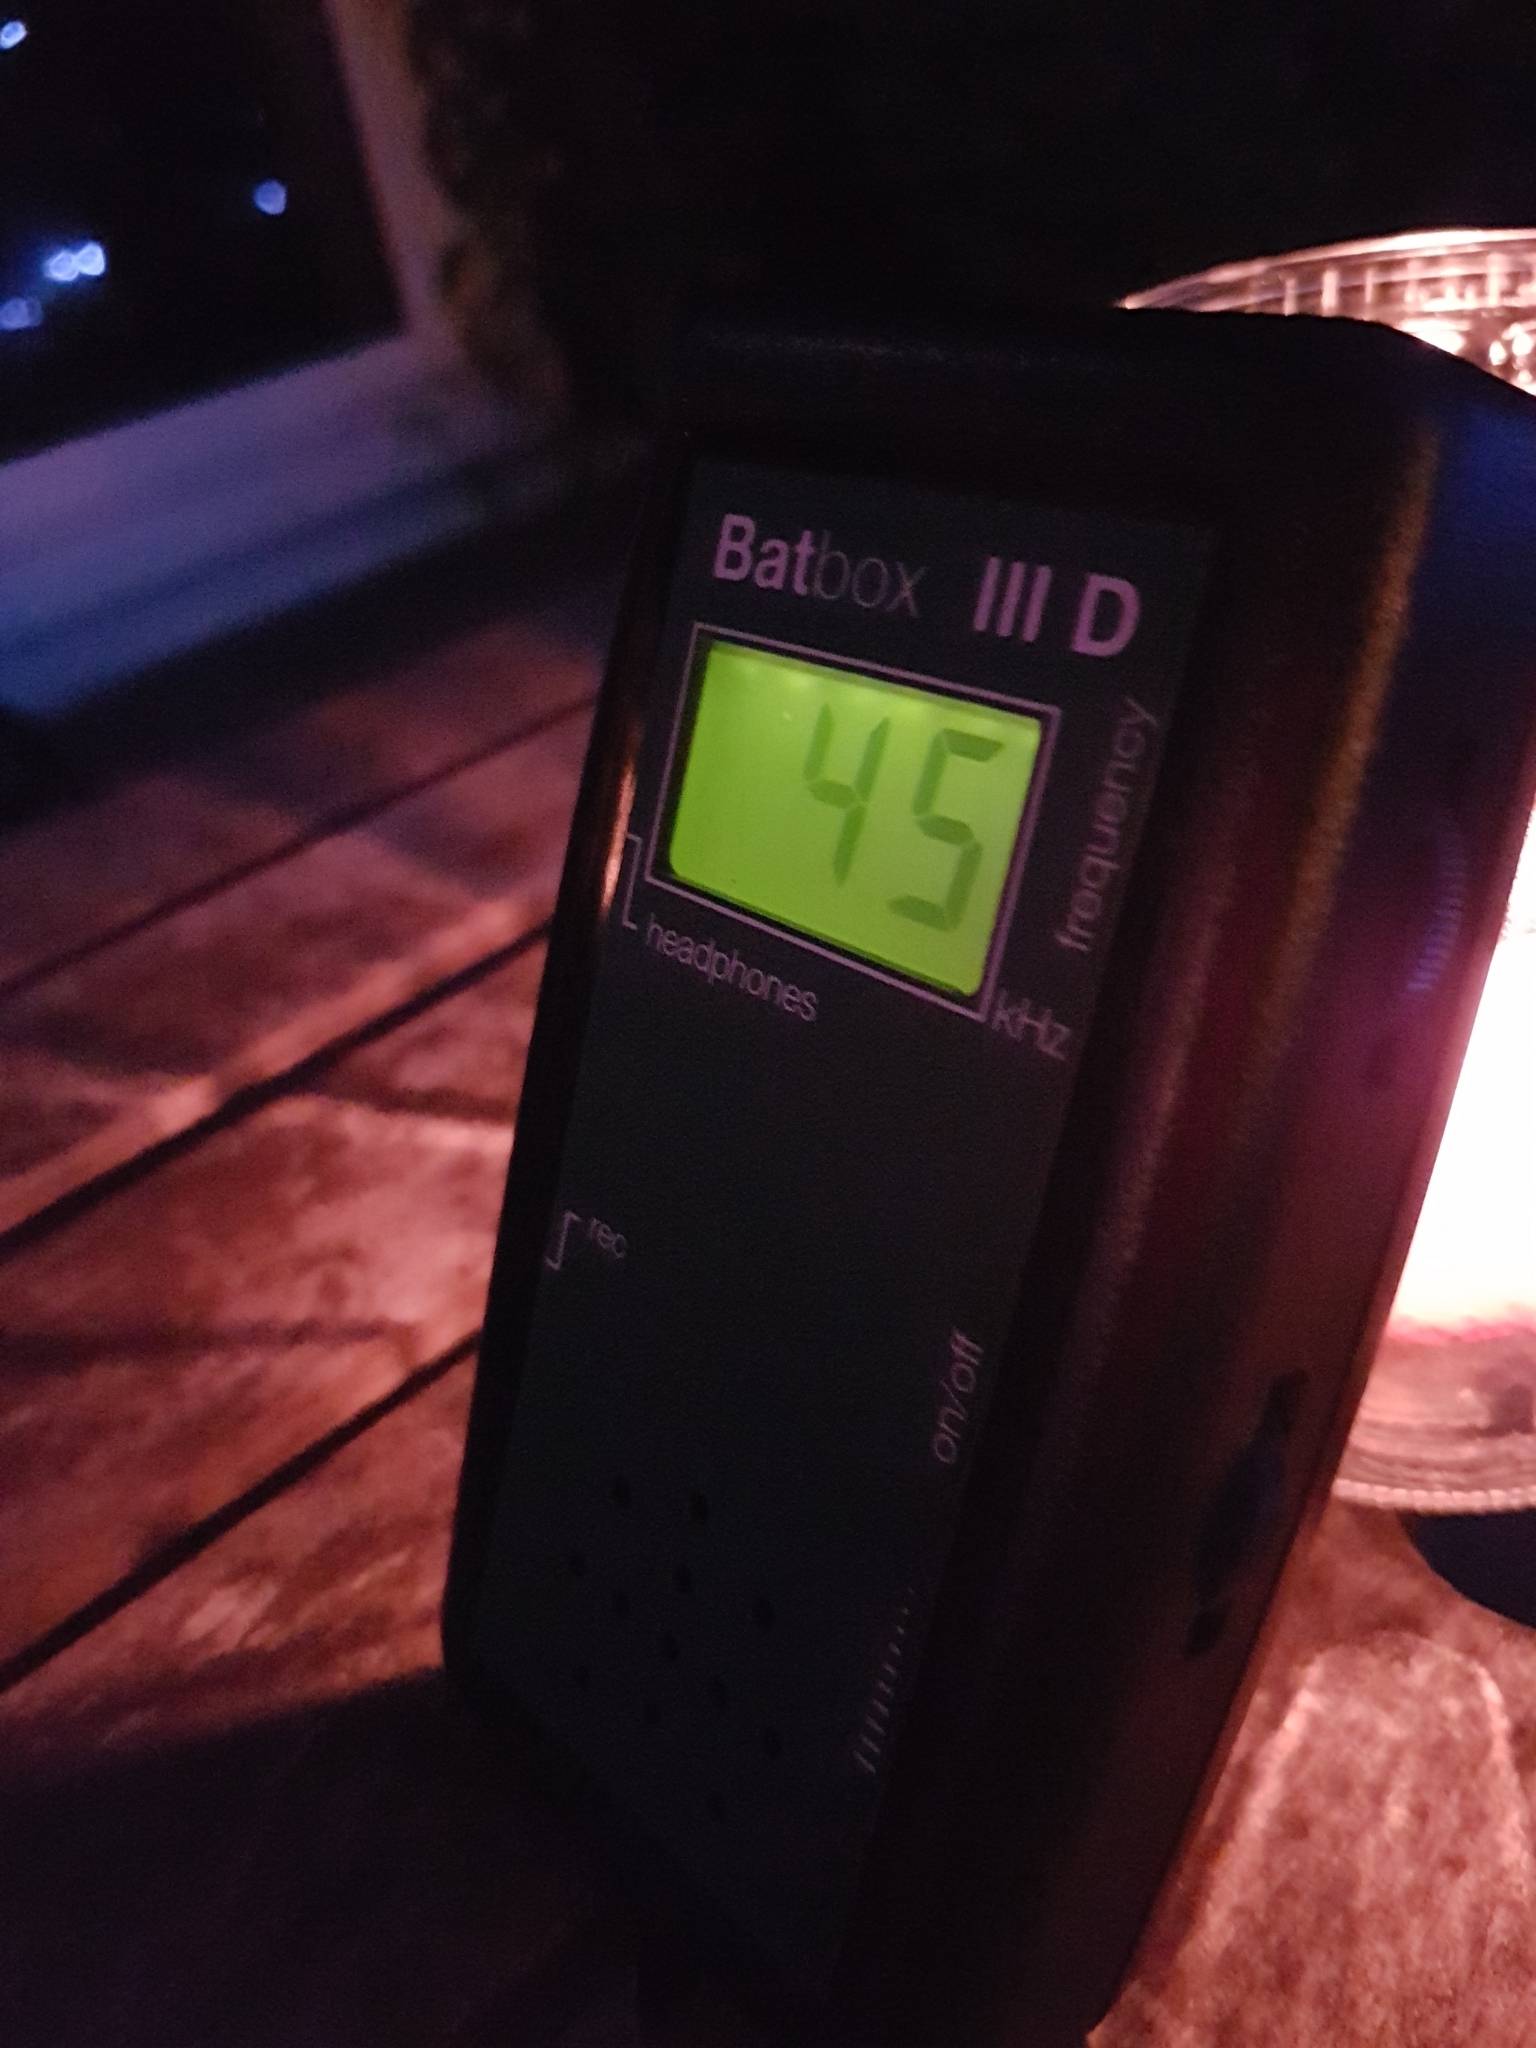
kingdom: Animalia
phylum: Chordata
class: Mammalia
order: Chiroptera
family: Vespertilionidae
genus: Pipistrellus
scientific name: Pipistrellus pipistrellus
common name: Common pipistrelle
